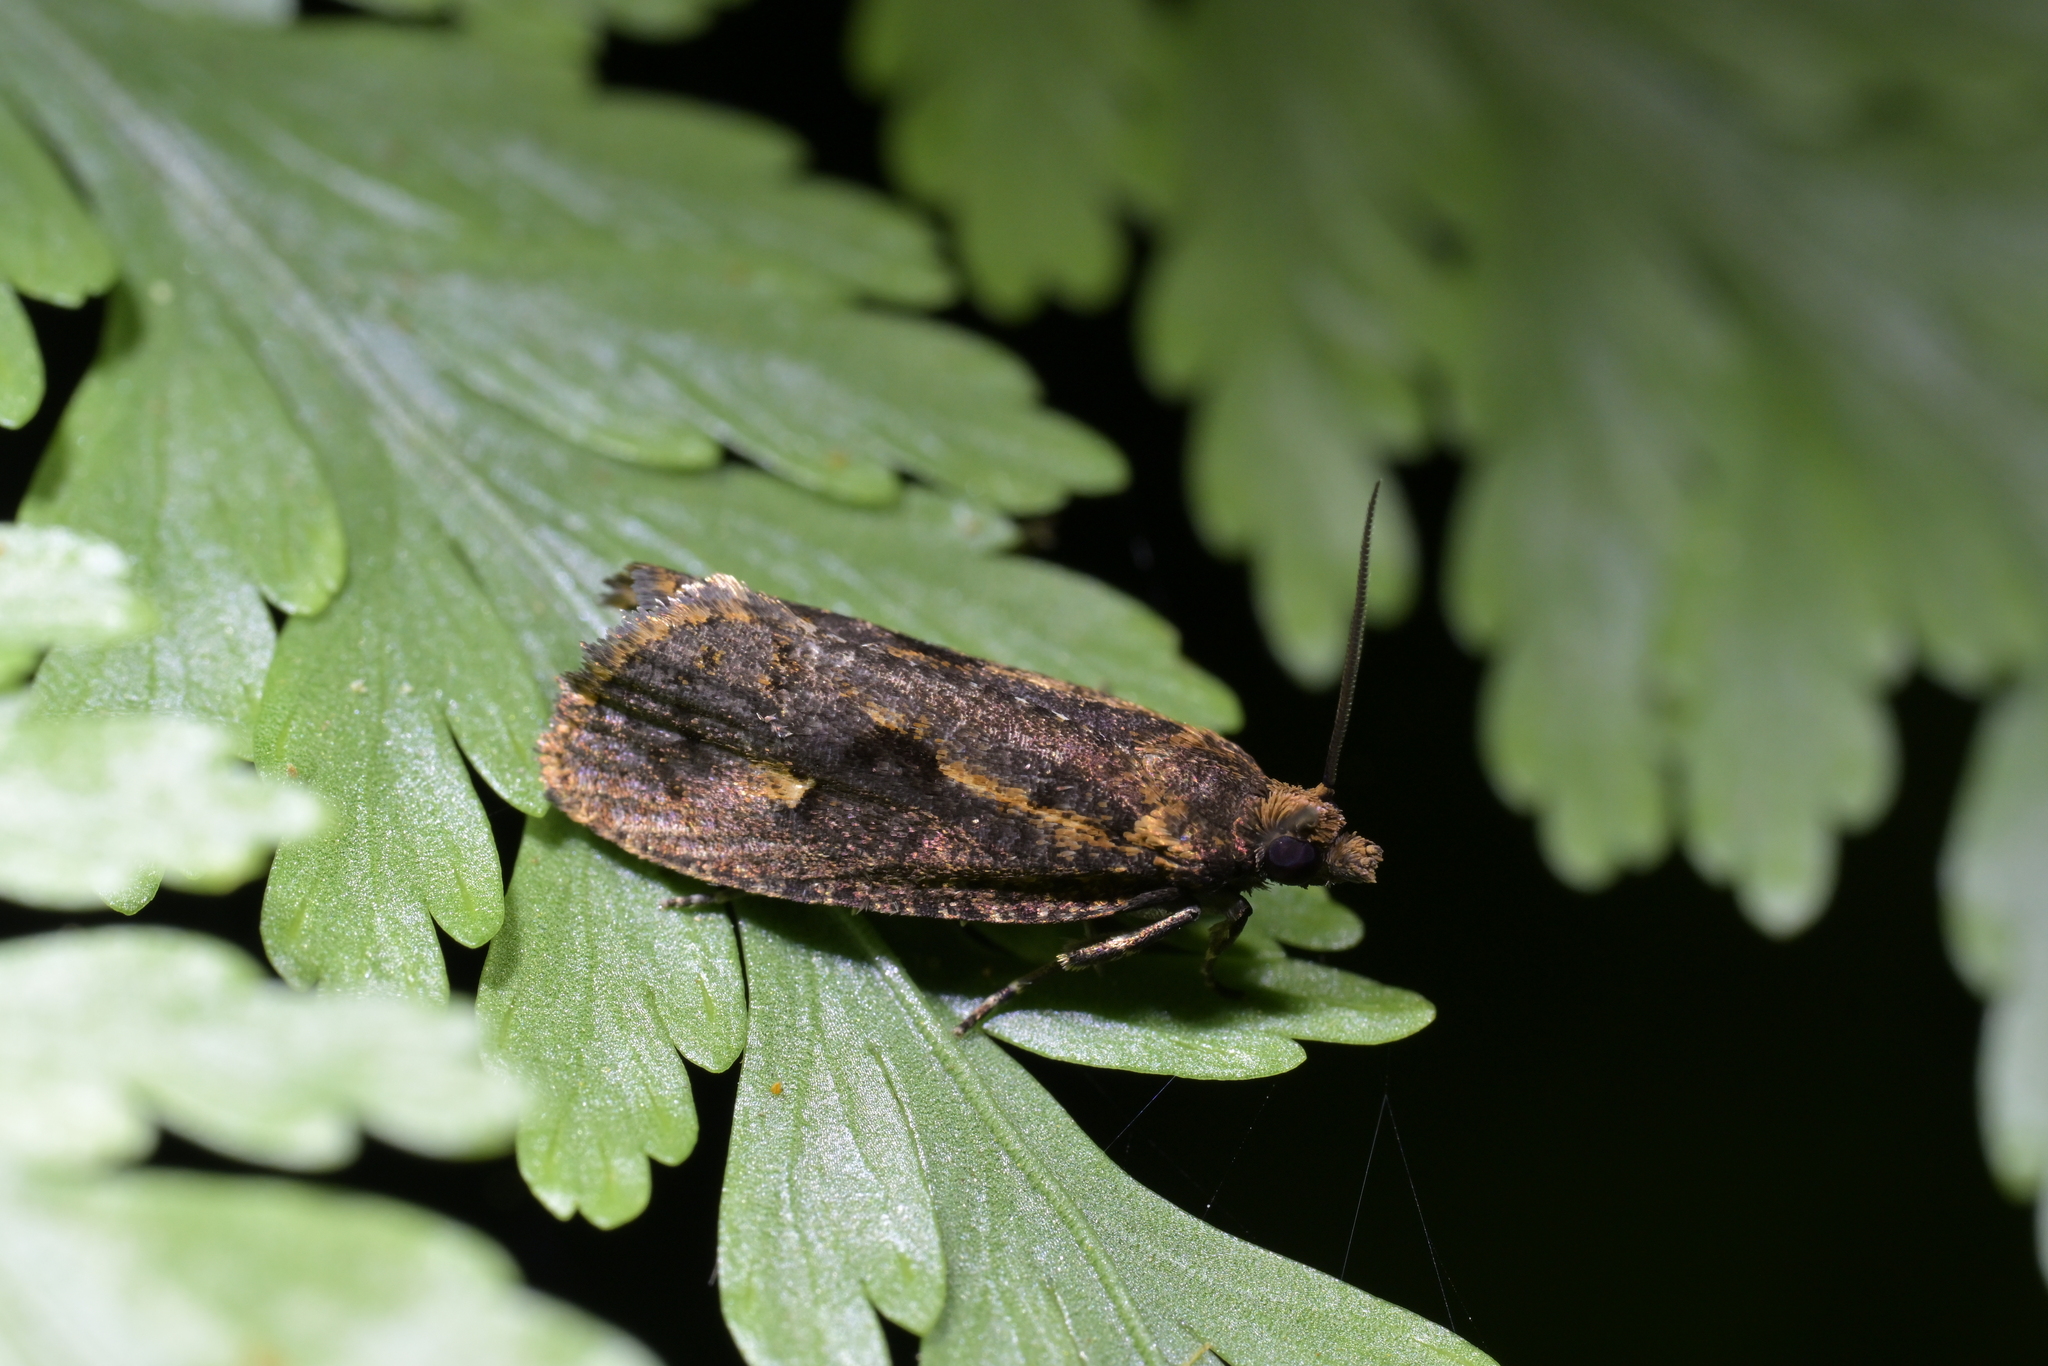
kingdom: Animalia
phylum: Arthropoda
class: Insecta
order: Lepidoptera
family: Tortricidae
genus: Cryptaspasma
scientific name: Cryptaspasma querula
